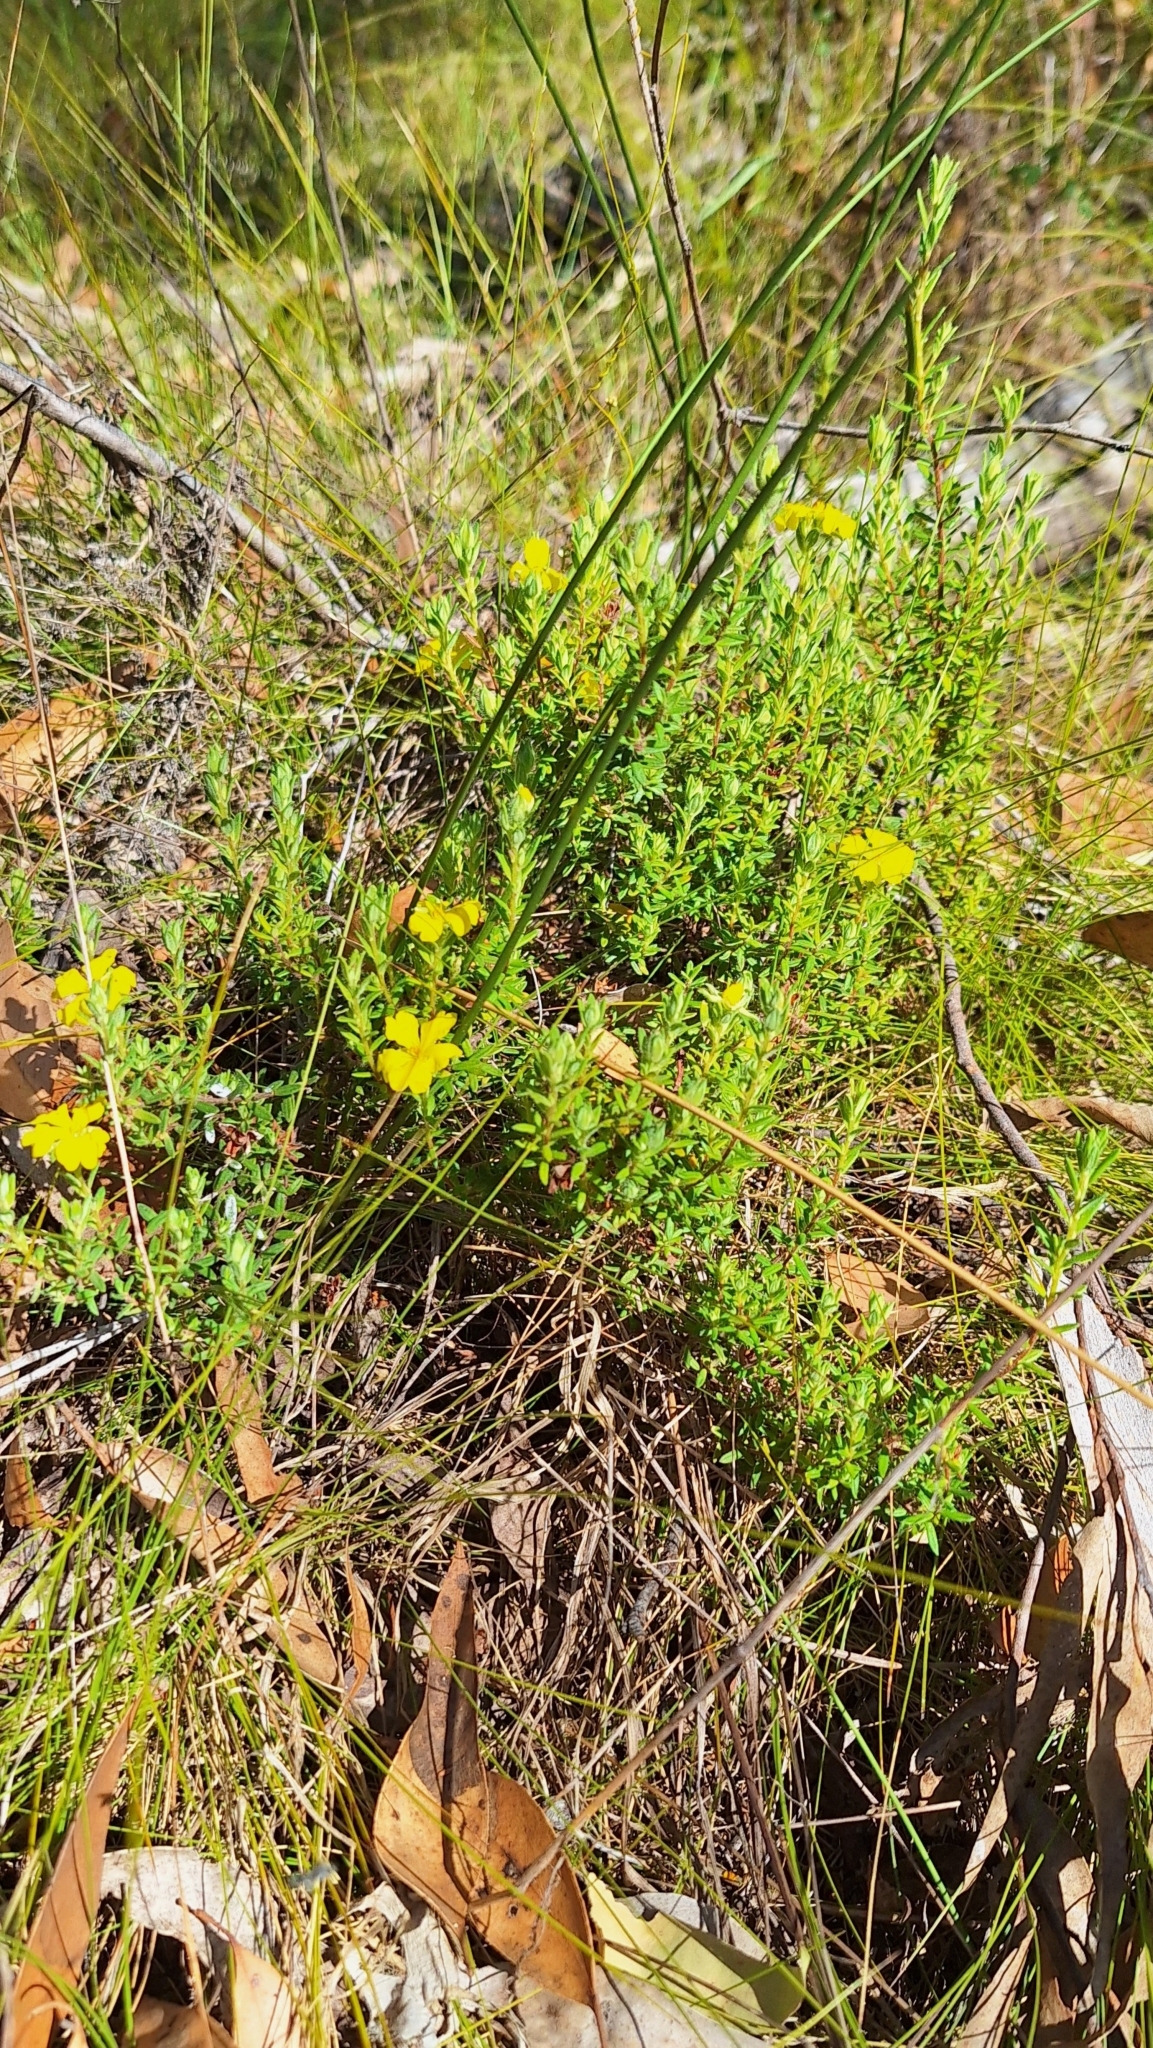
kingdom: Plantae
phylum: Tracheophyta
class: Magnoliopsida
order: Dilleniales
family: Dilleniaceae
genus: Hibbertia
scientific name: Hibbertia crinita
